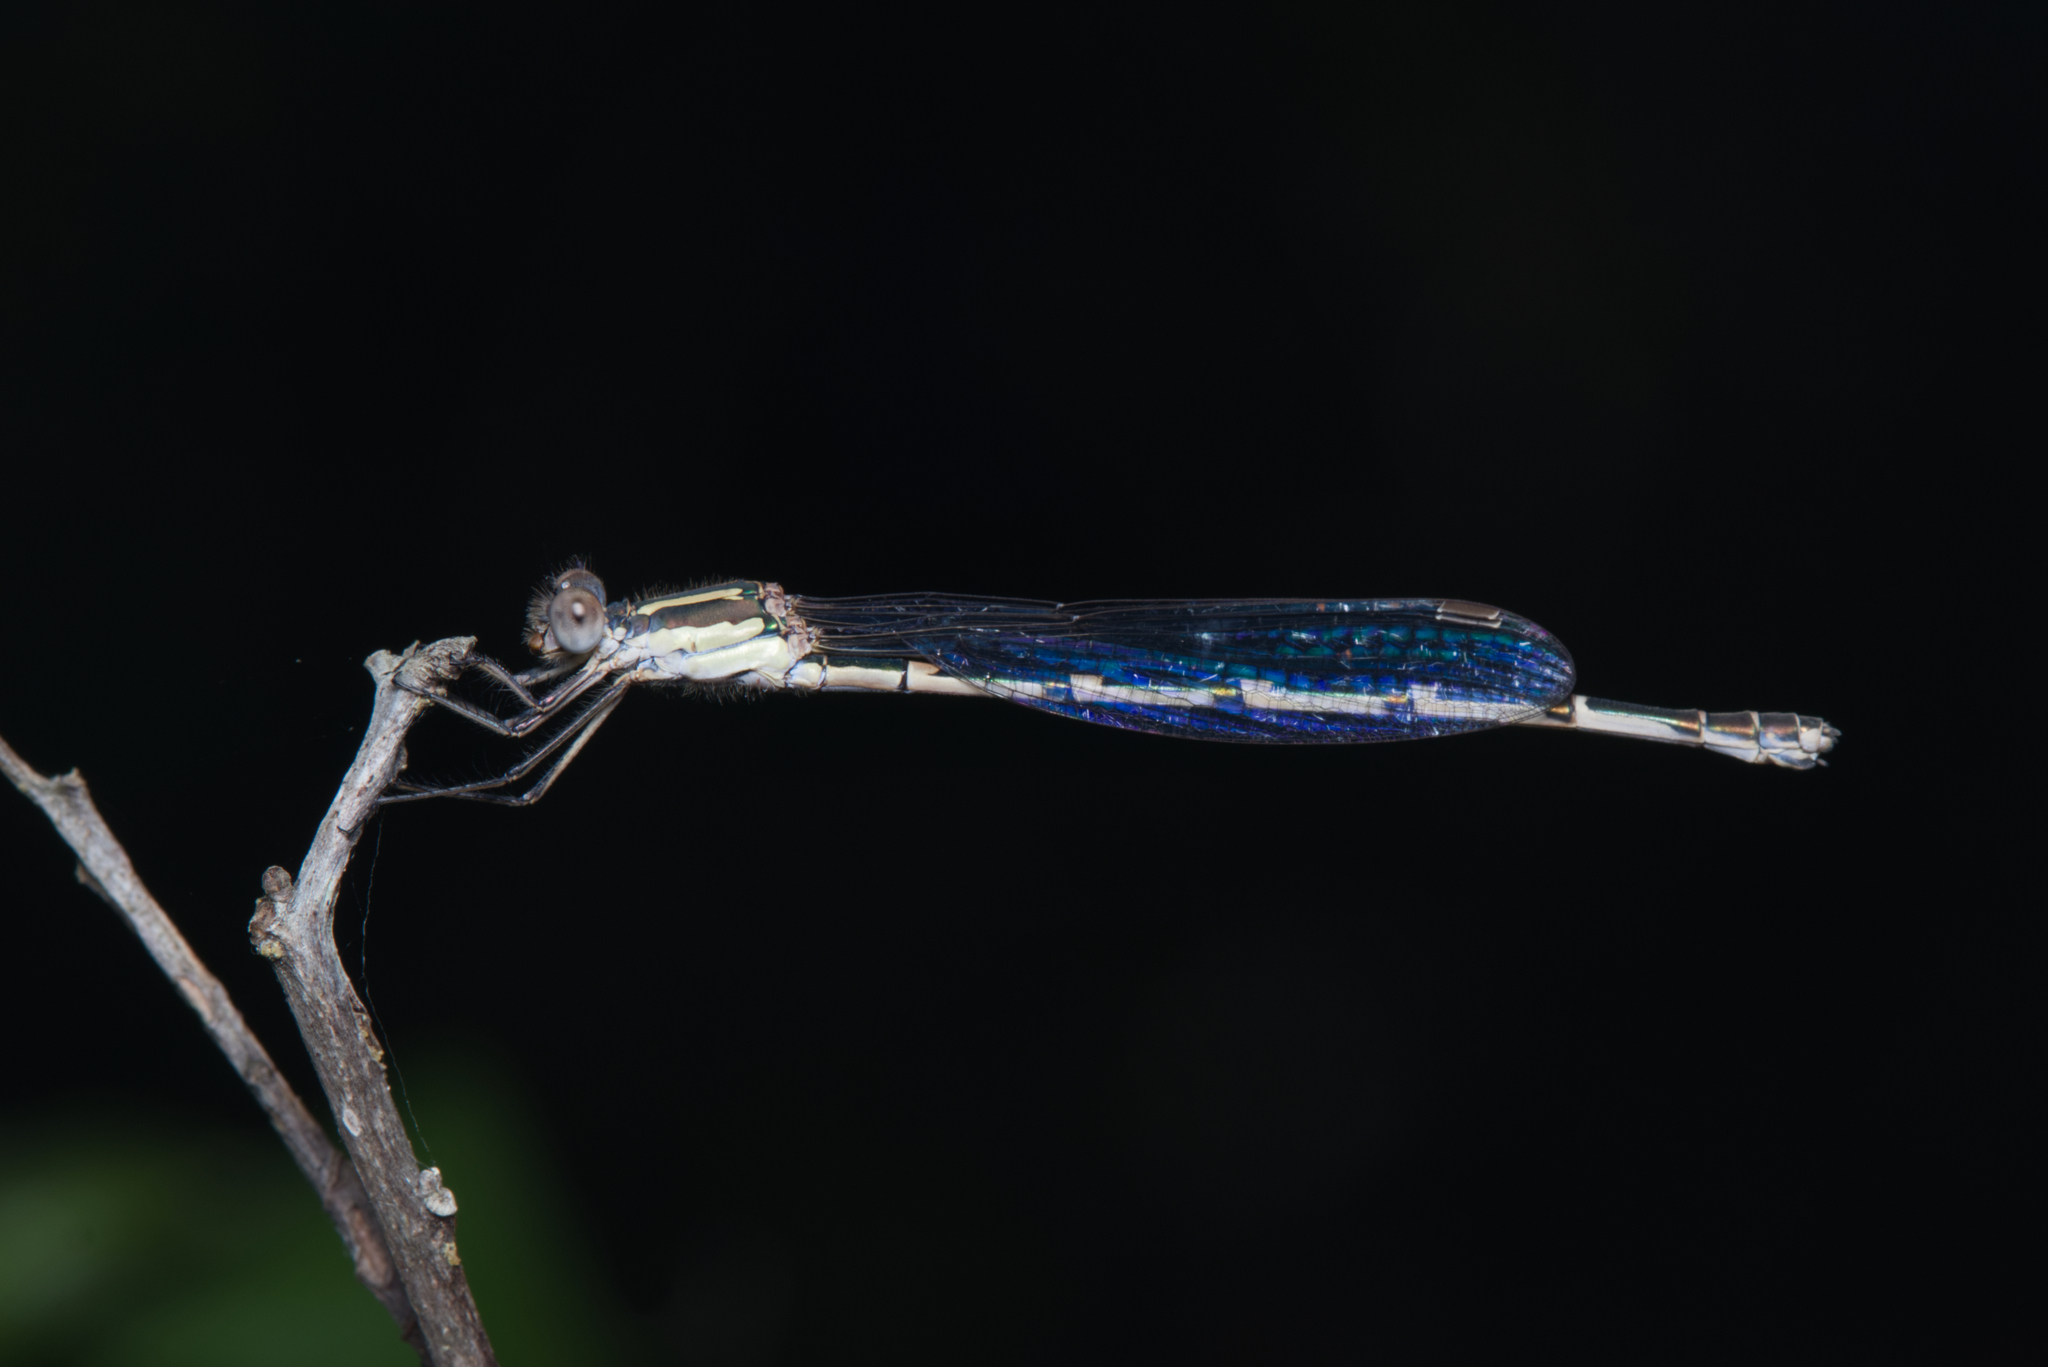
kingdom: Animalia
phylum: Arthropoda
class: Insecta
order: Odonata
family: Lestidae
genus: Austrolestes
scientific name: Austrolestes leda
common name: Wandering ringtail
